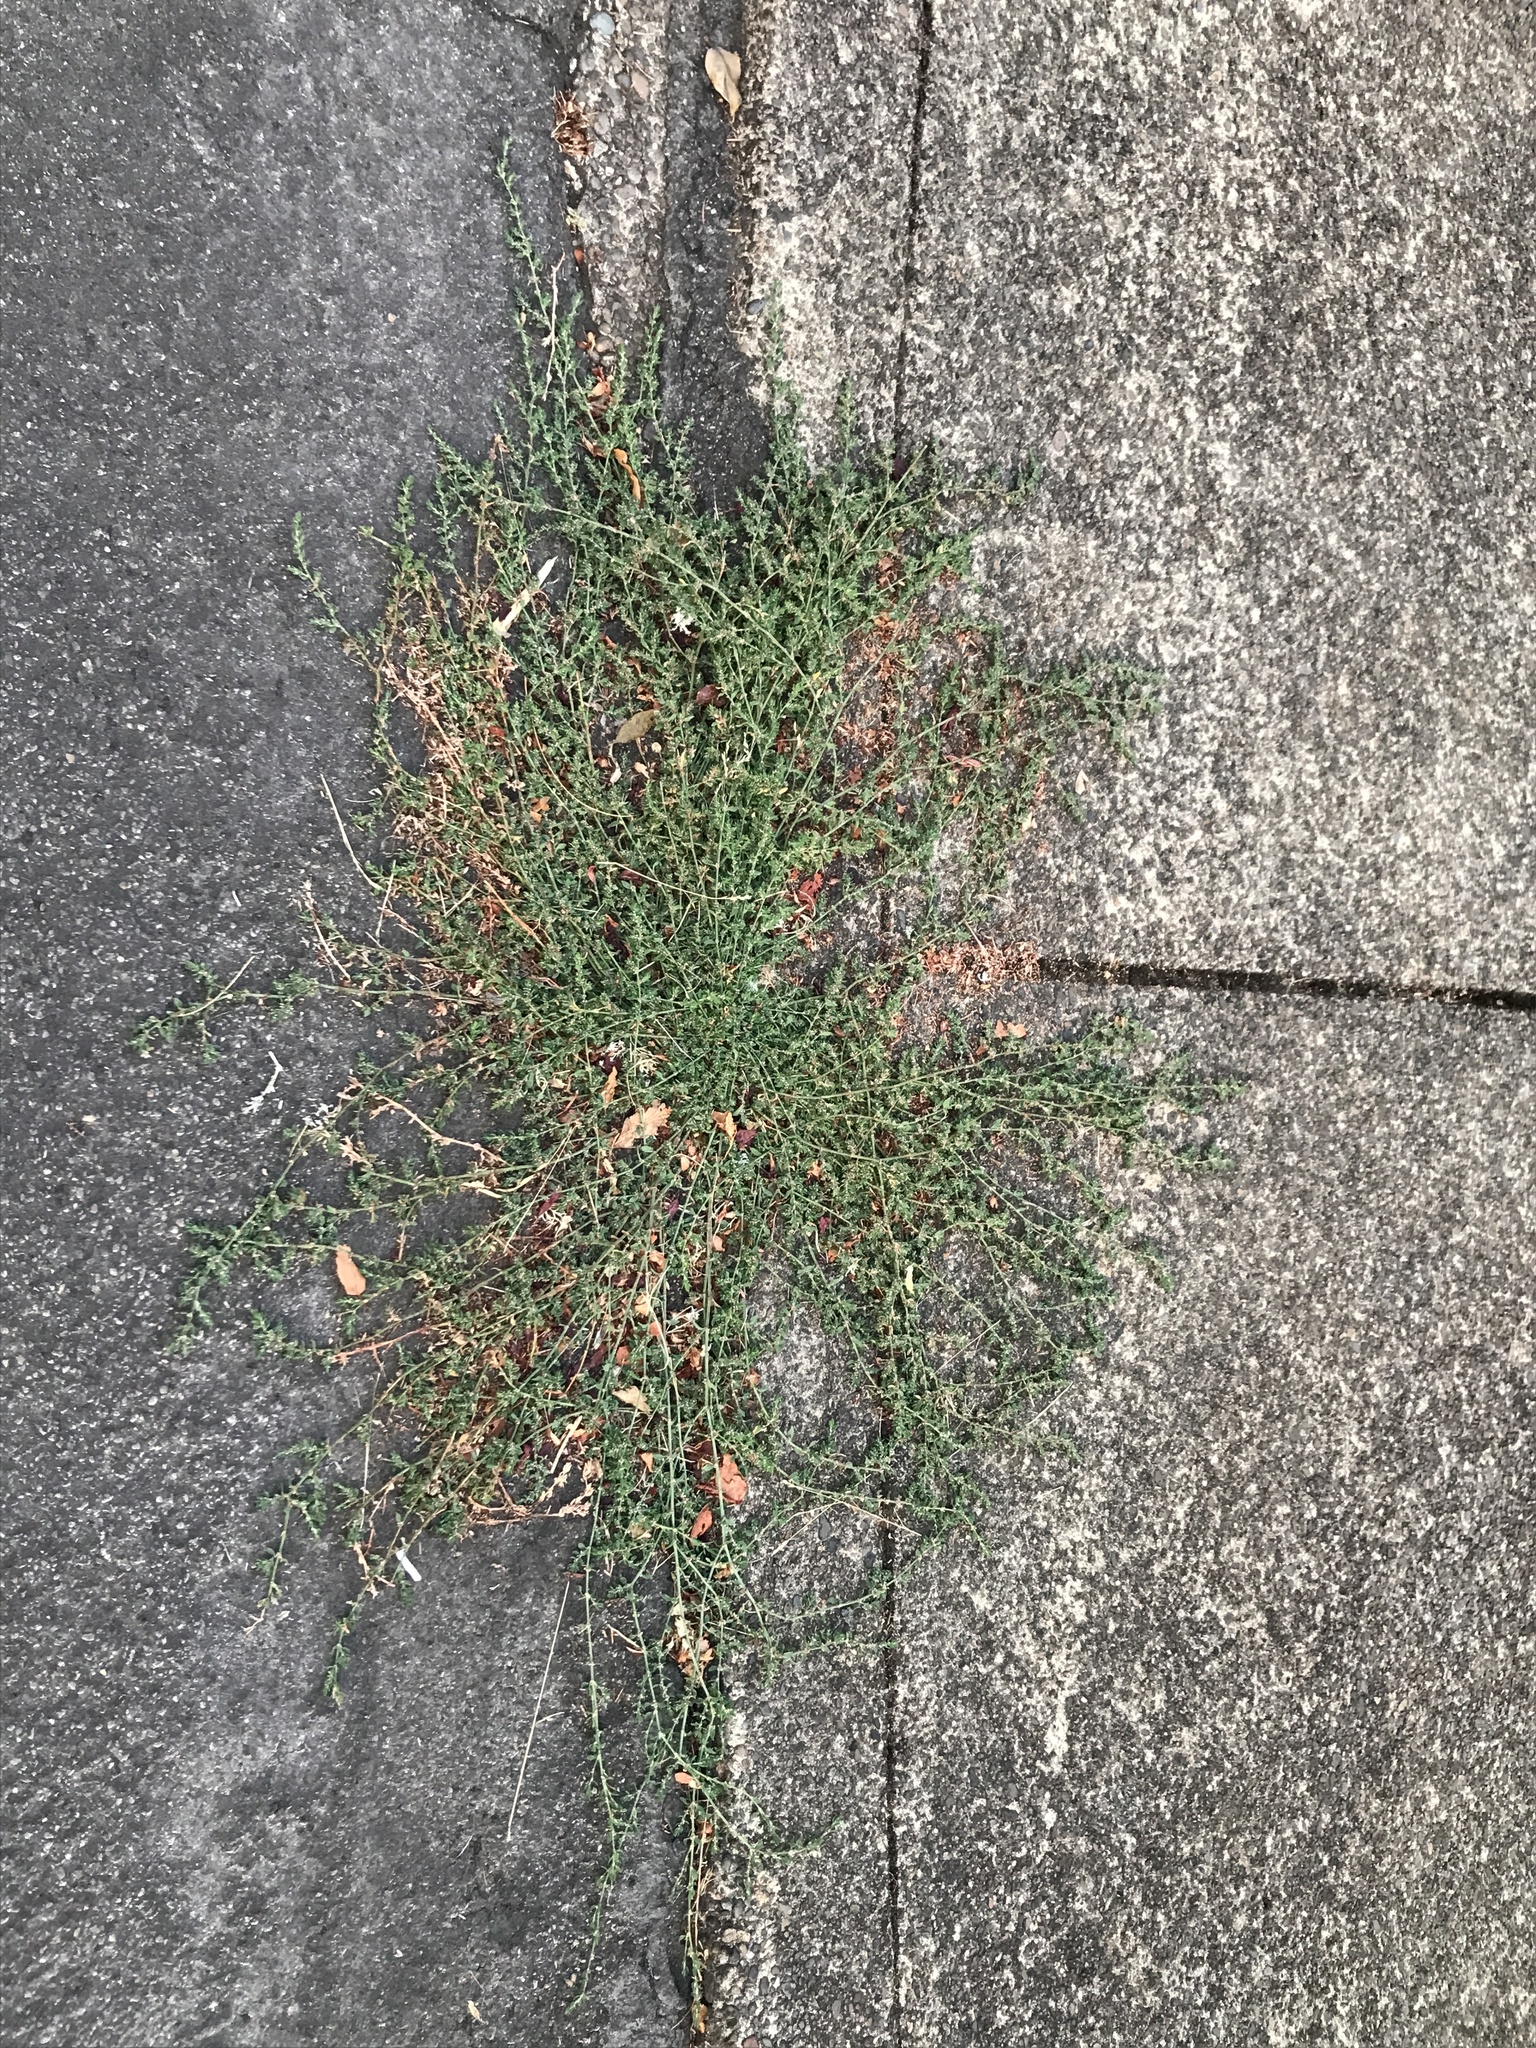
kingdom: Plantae
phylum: Tracheophyta
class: Magnoliopsida
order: Caryophyllales
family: Polygonaceae
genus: Polygonum
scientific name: Polygonum aviculare
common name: Prostrate knotweed
